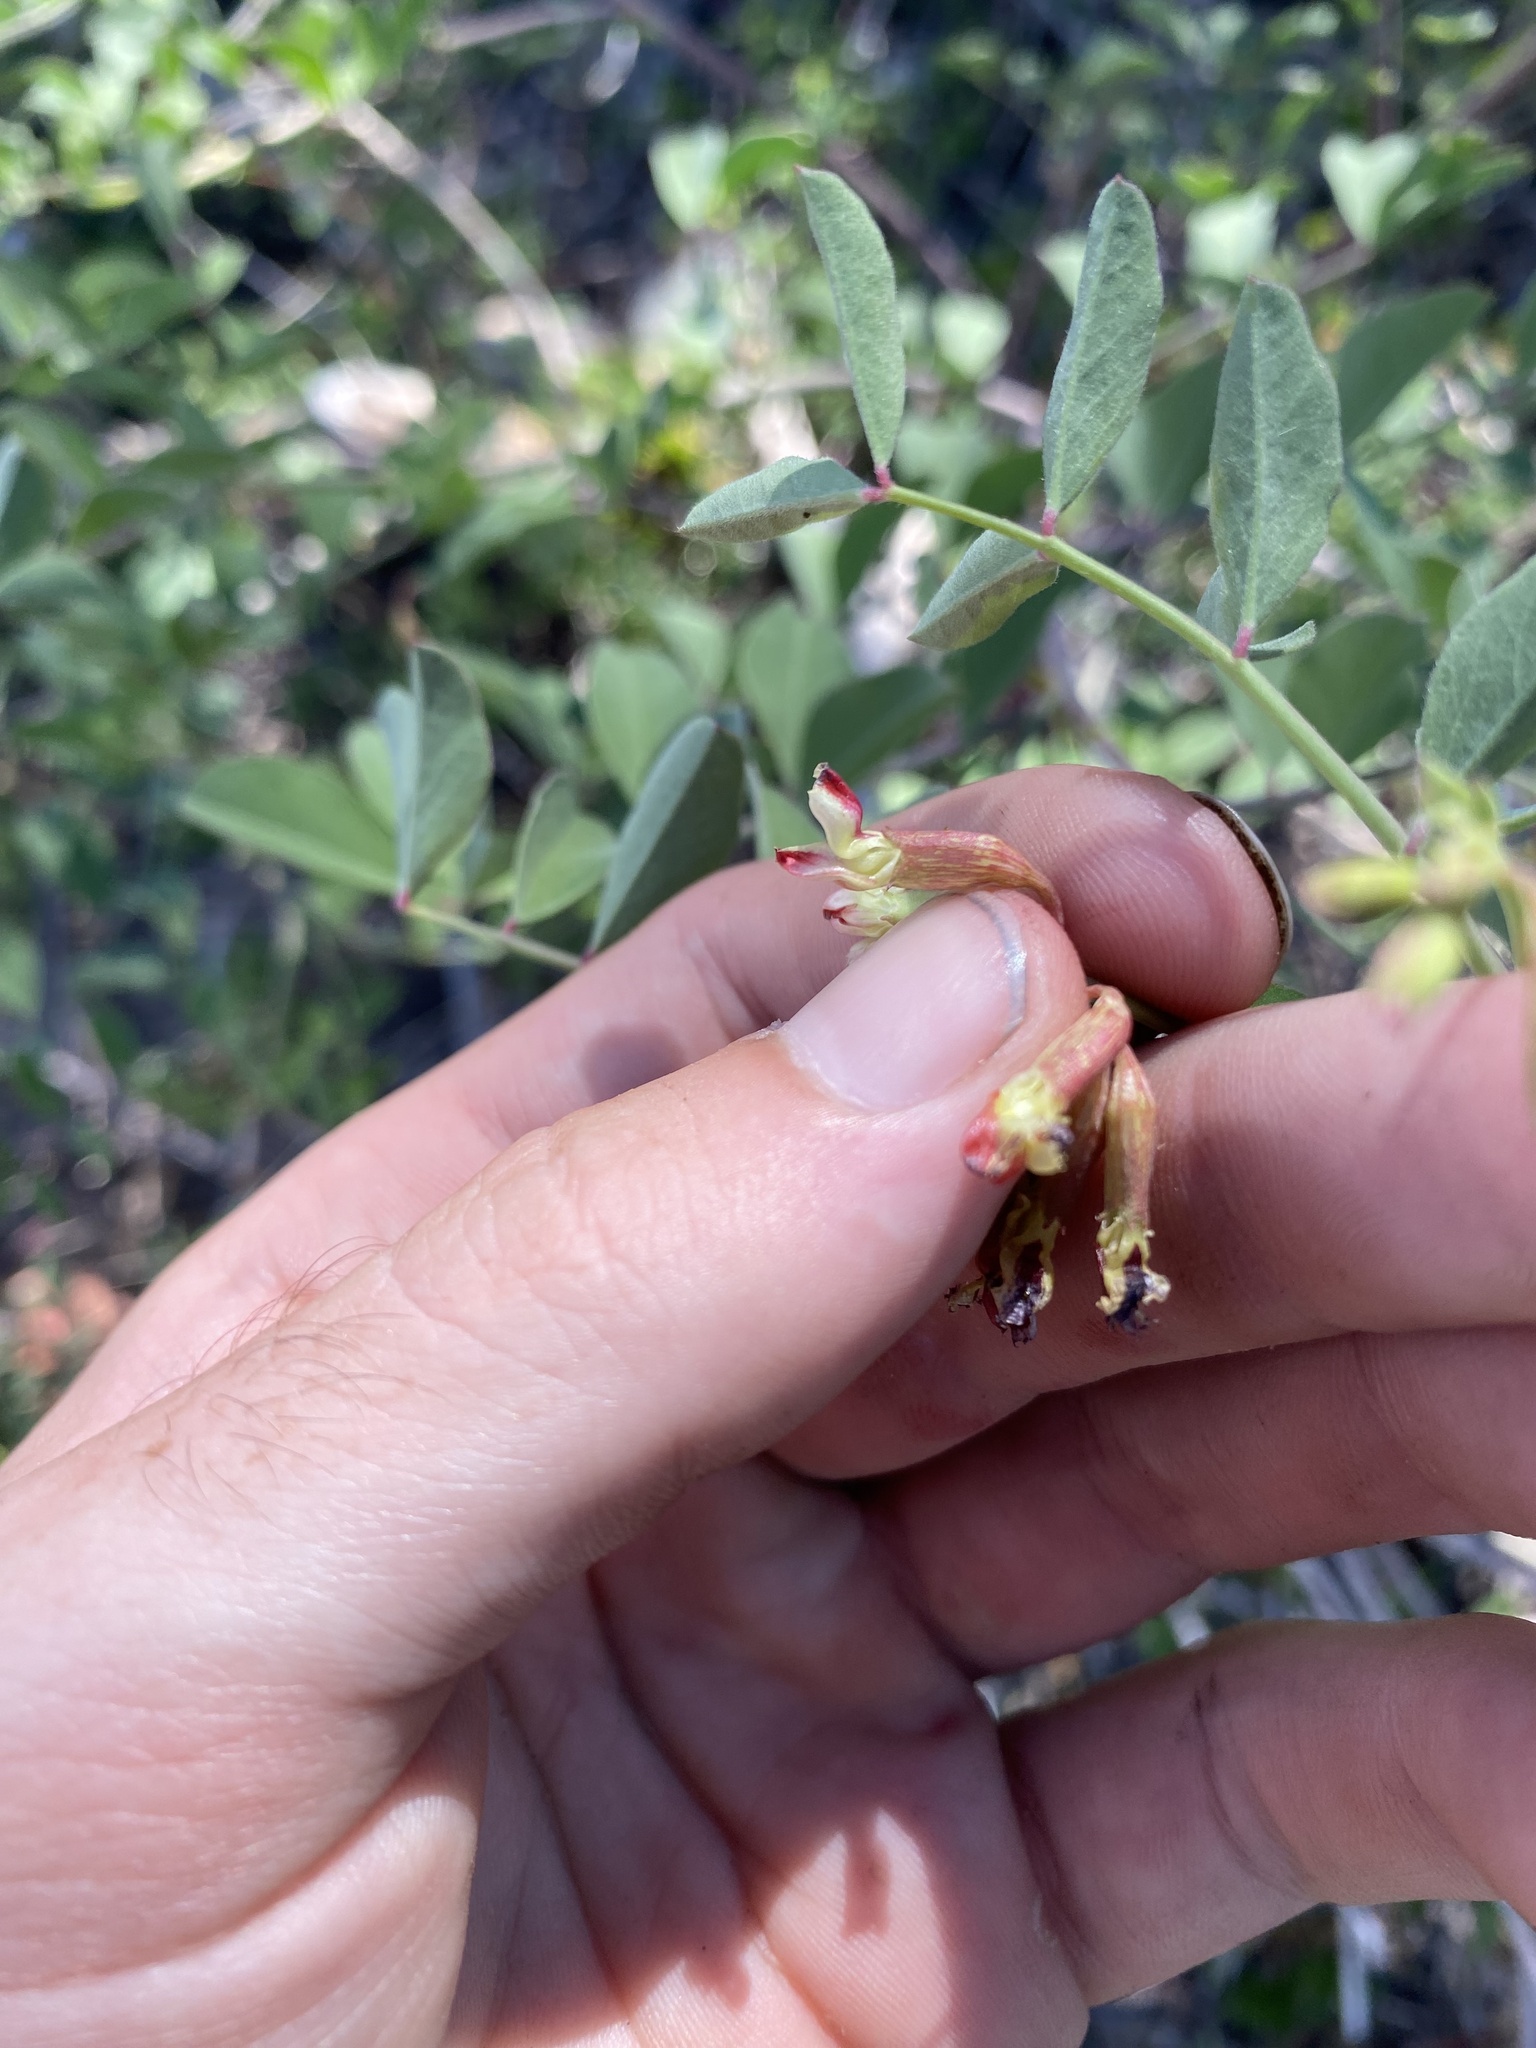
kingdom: Plantae
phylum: Tracheophyta
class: Magnoliopsida
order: Fabales
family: Fabaceae
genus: Hosackia
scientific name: Hosackia crassifolia
